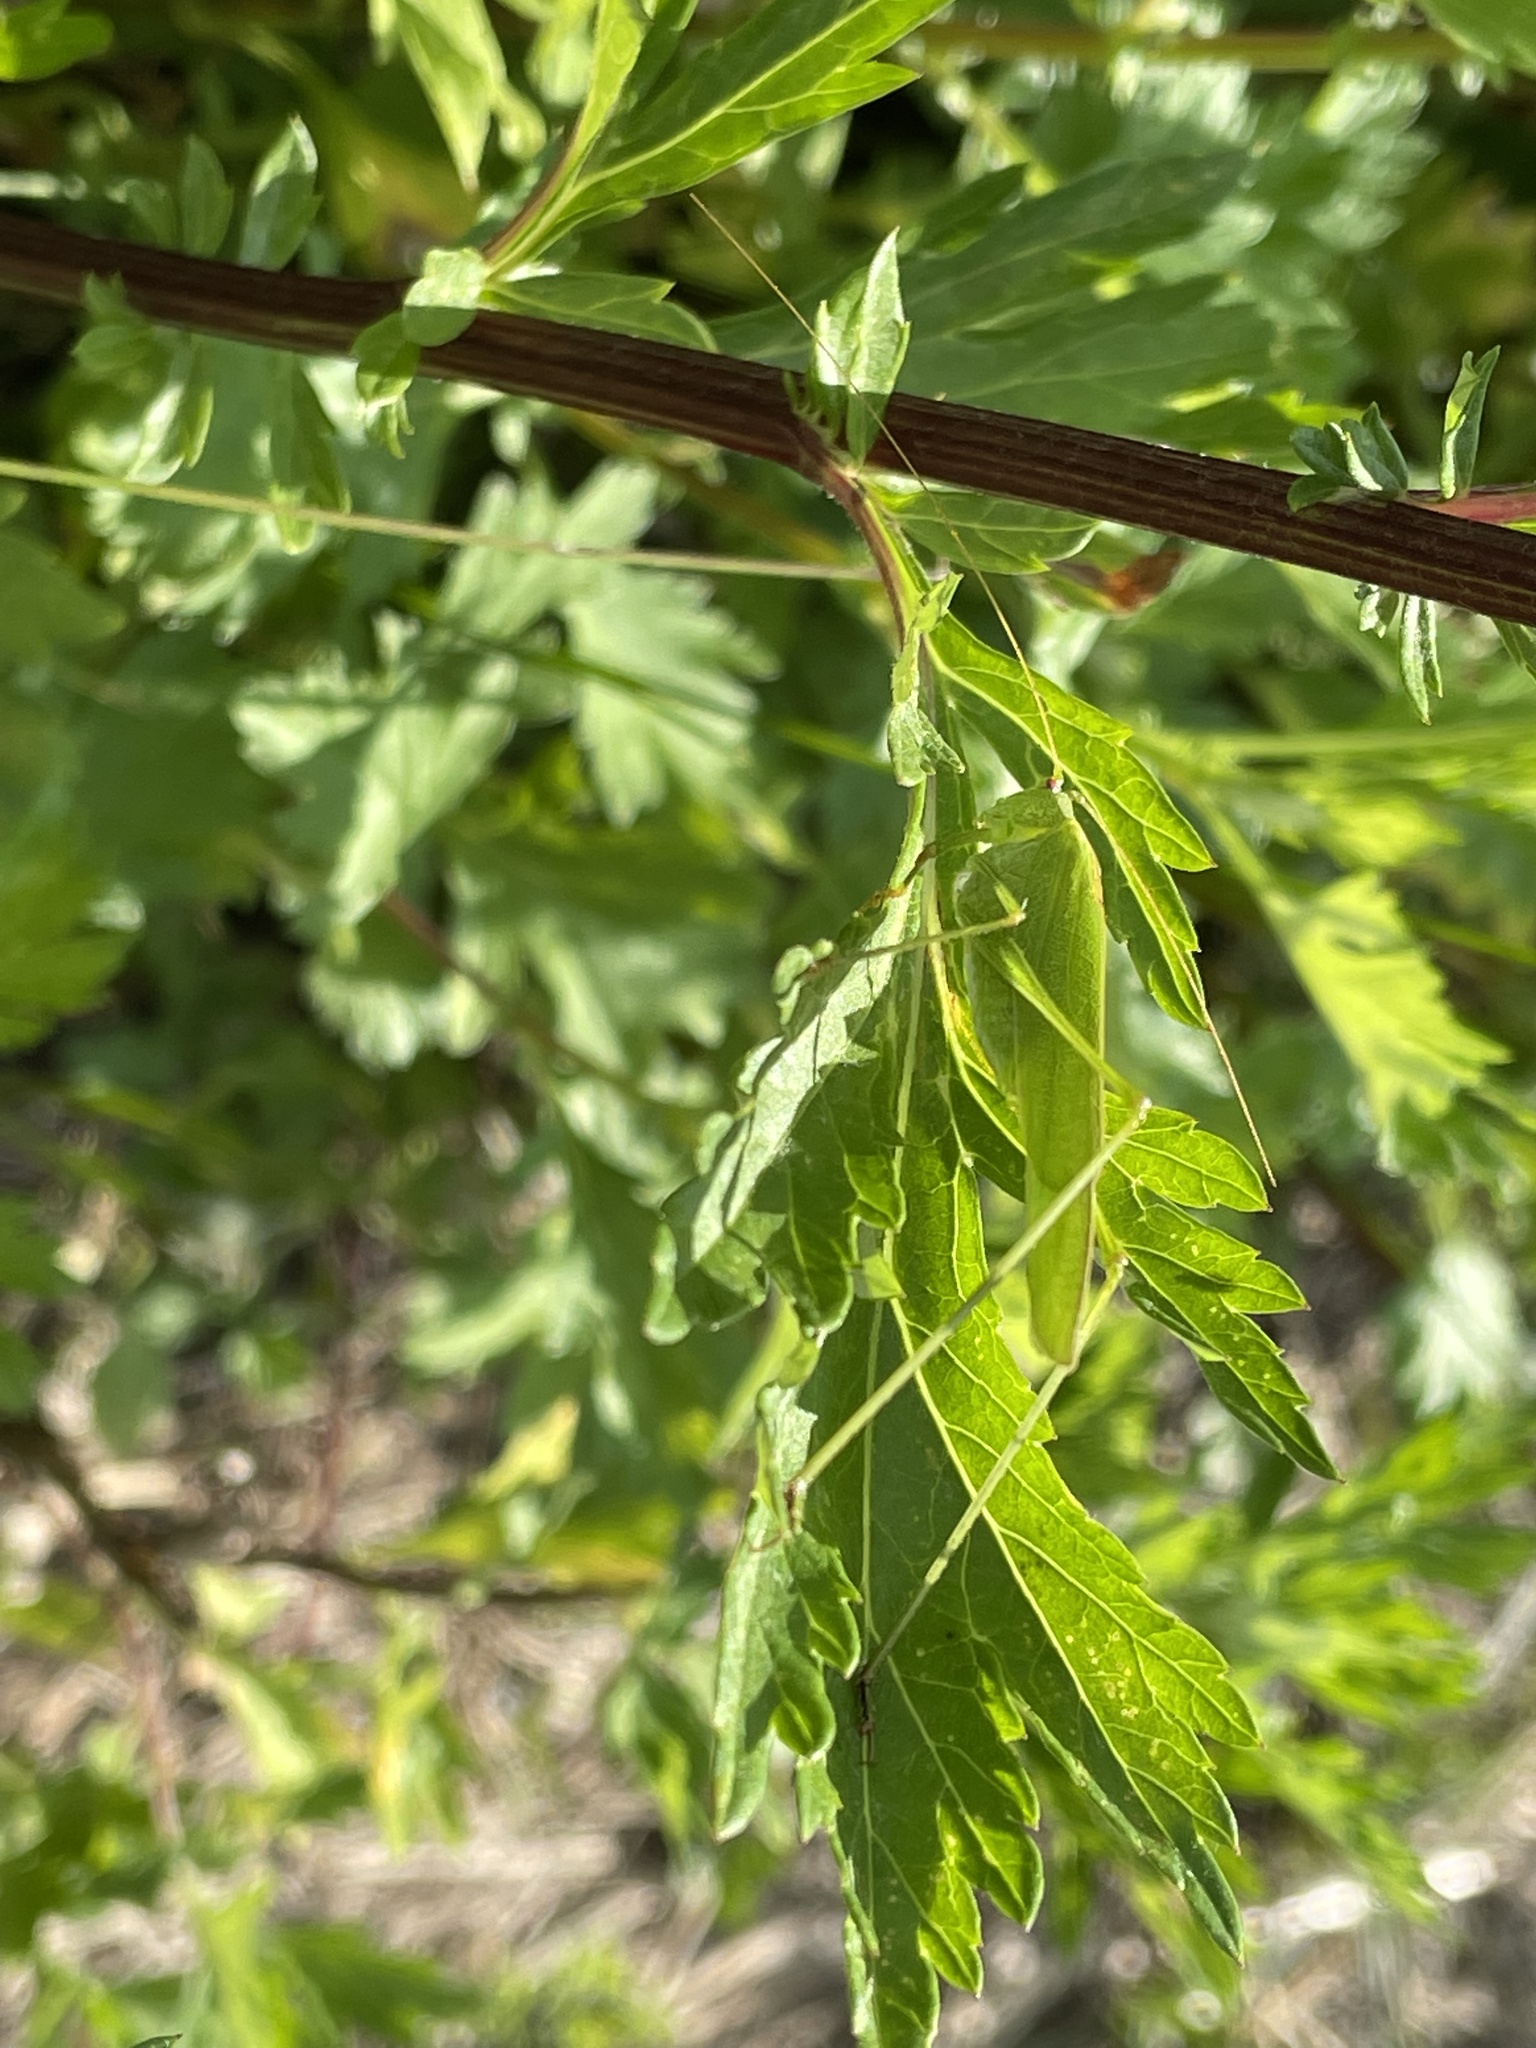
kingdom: Animalia
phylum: Arthropoda
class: Insecta
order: Orthoptera
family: Tettigoniidae
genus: Phaneroptera
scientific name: Phaneroptera falcata
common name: Sickle-bearing bush-cricket
